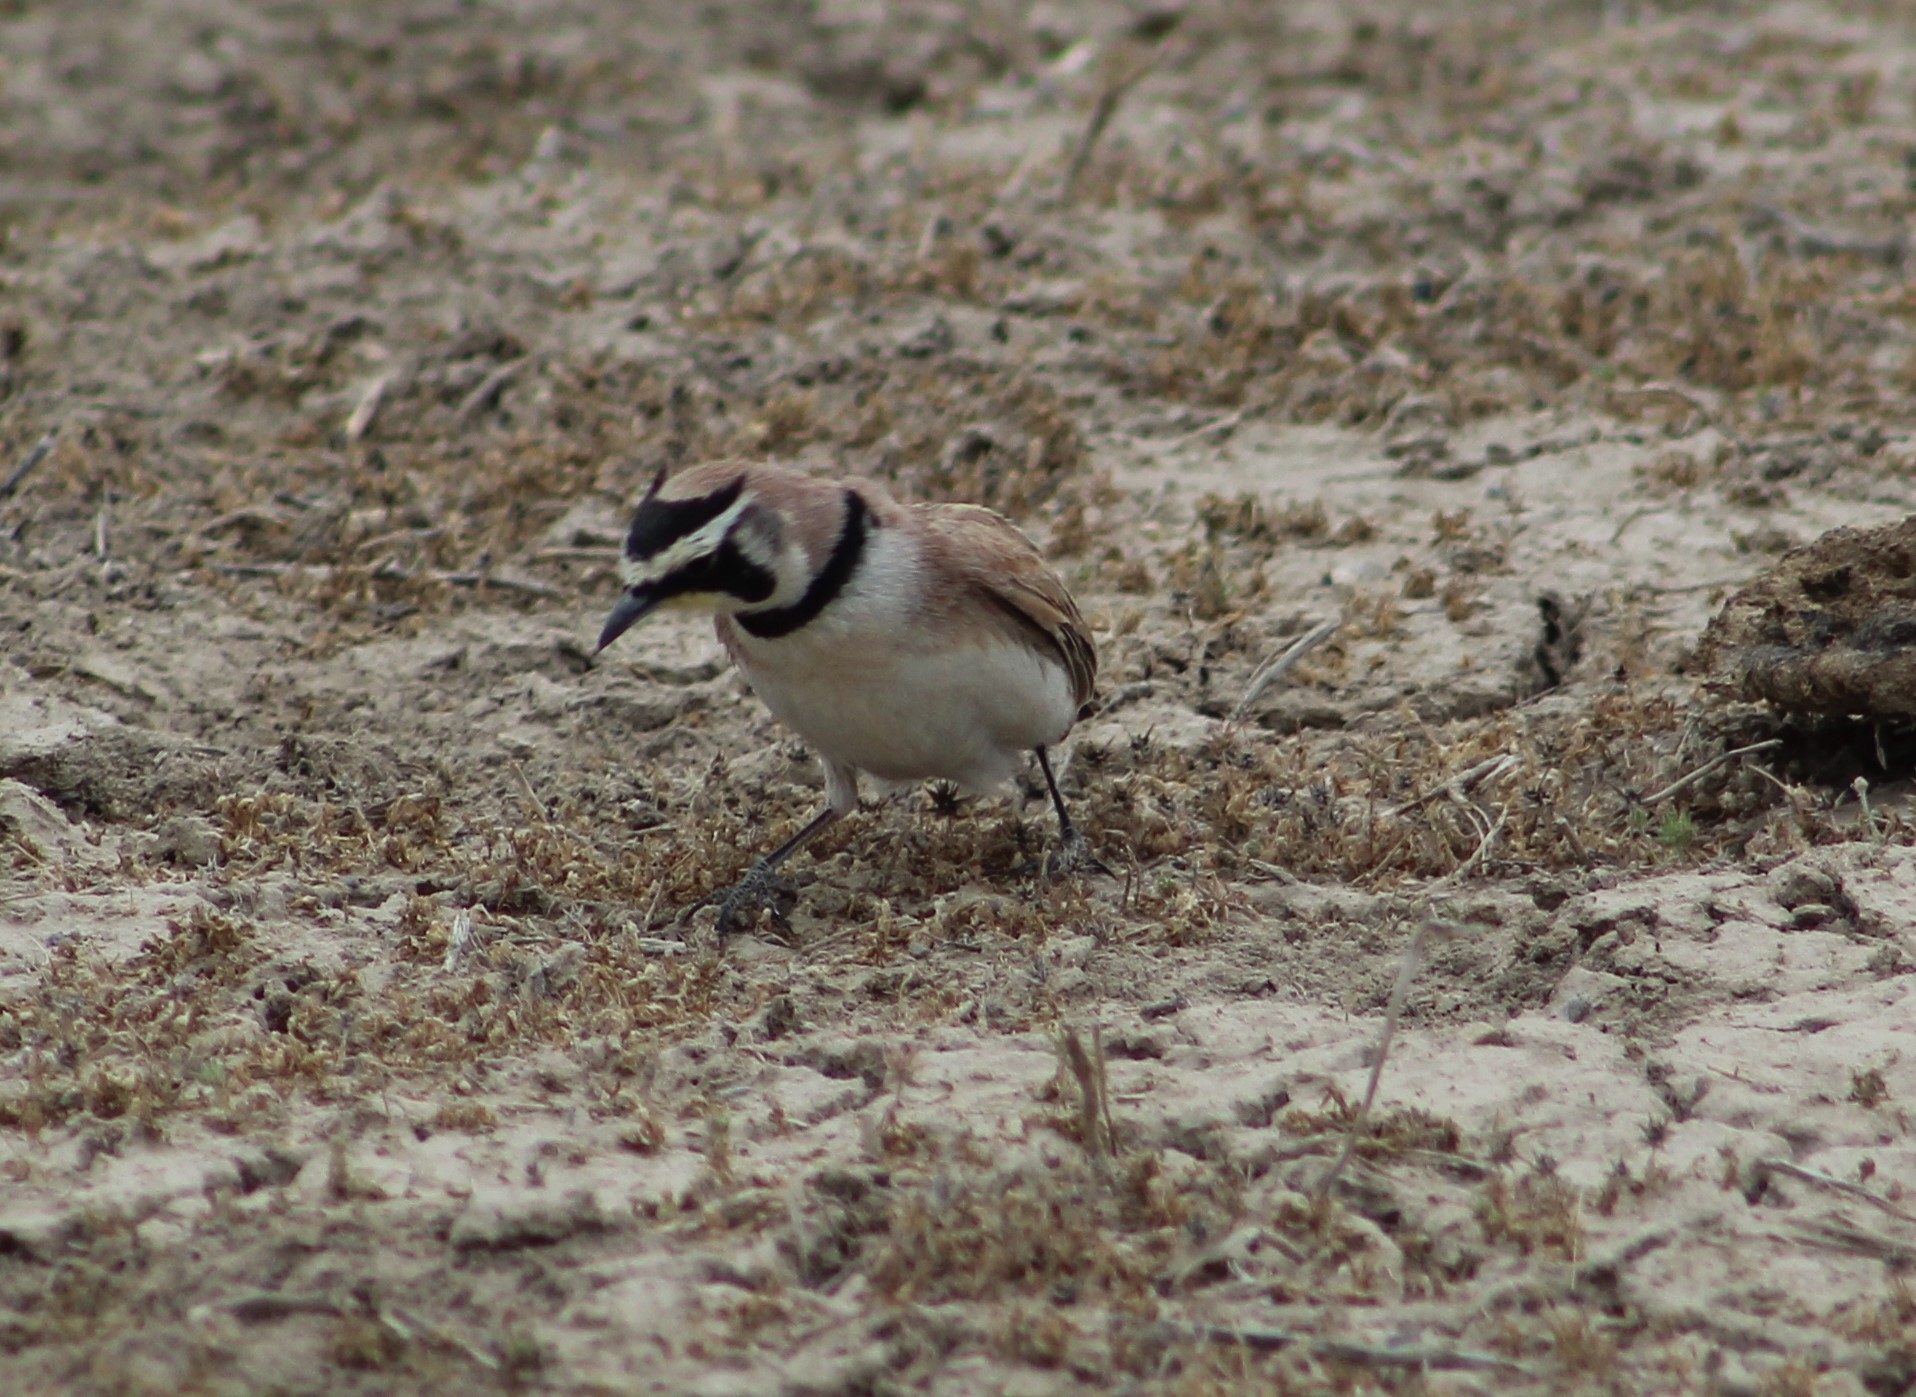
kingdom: Animalia
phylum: Chordata
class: Aves
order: Passeriformes
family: Alaudidae
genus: Eremophila
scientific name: Eremophila alpestris
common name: Horned lark
